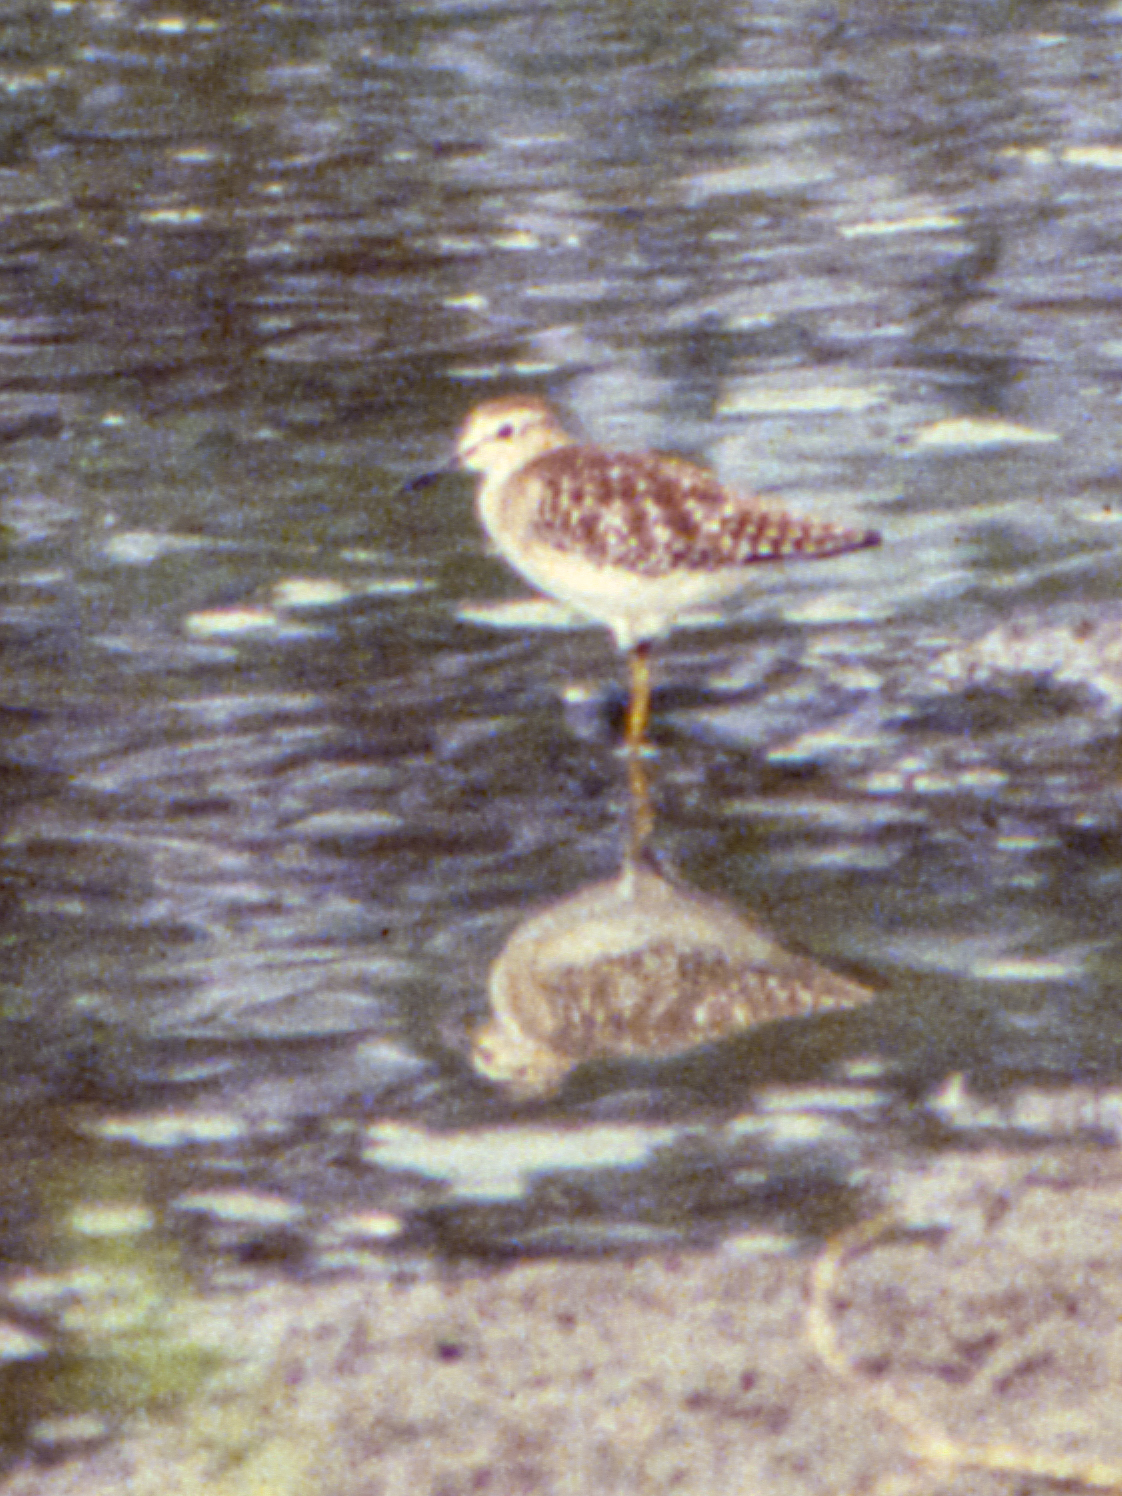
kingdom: Animalia
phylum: Chordata
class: Aves
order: Charadriiformes
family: Scolopacidae
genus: Tringa
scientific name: Tringa glareola
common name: Wood sandpiper
